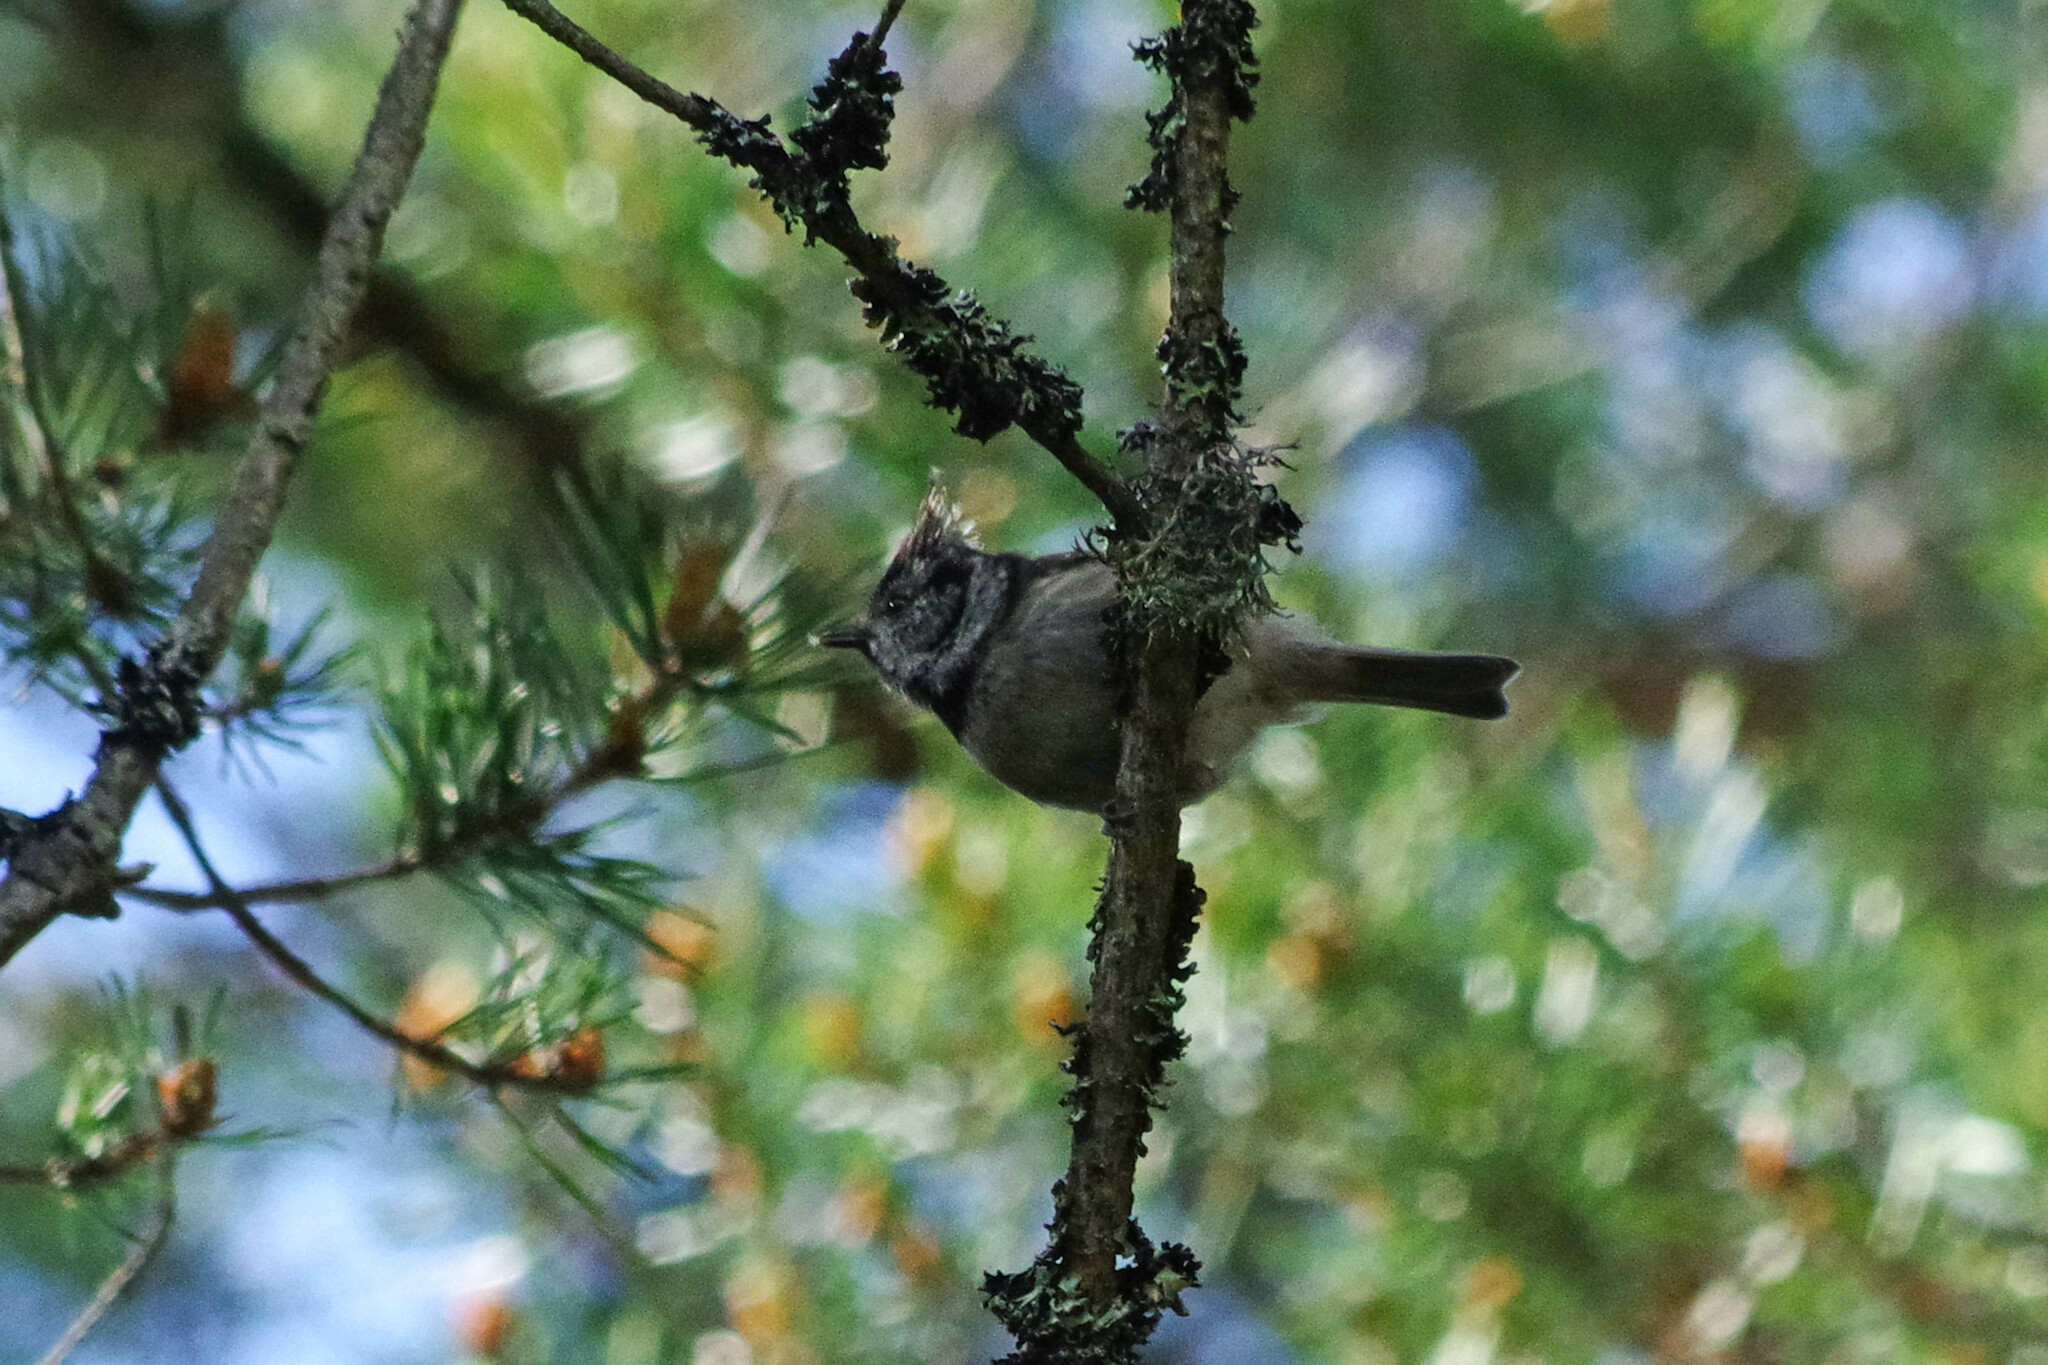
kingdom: Animalia
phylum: Chordata
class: Aves
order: Passeriformes
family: Paridae
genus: Lophophanes
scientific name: Lophophanes cristatus
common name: European crested tit
